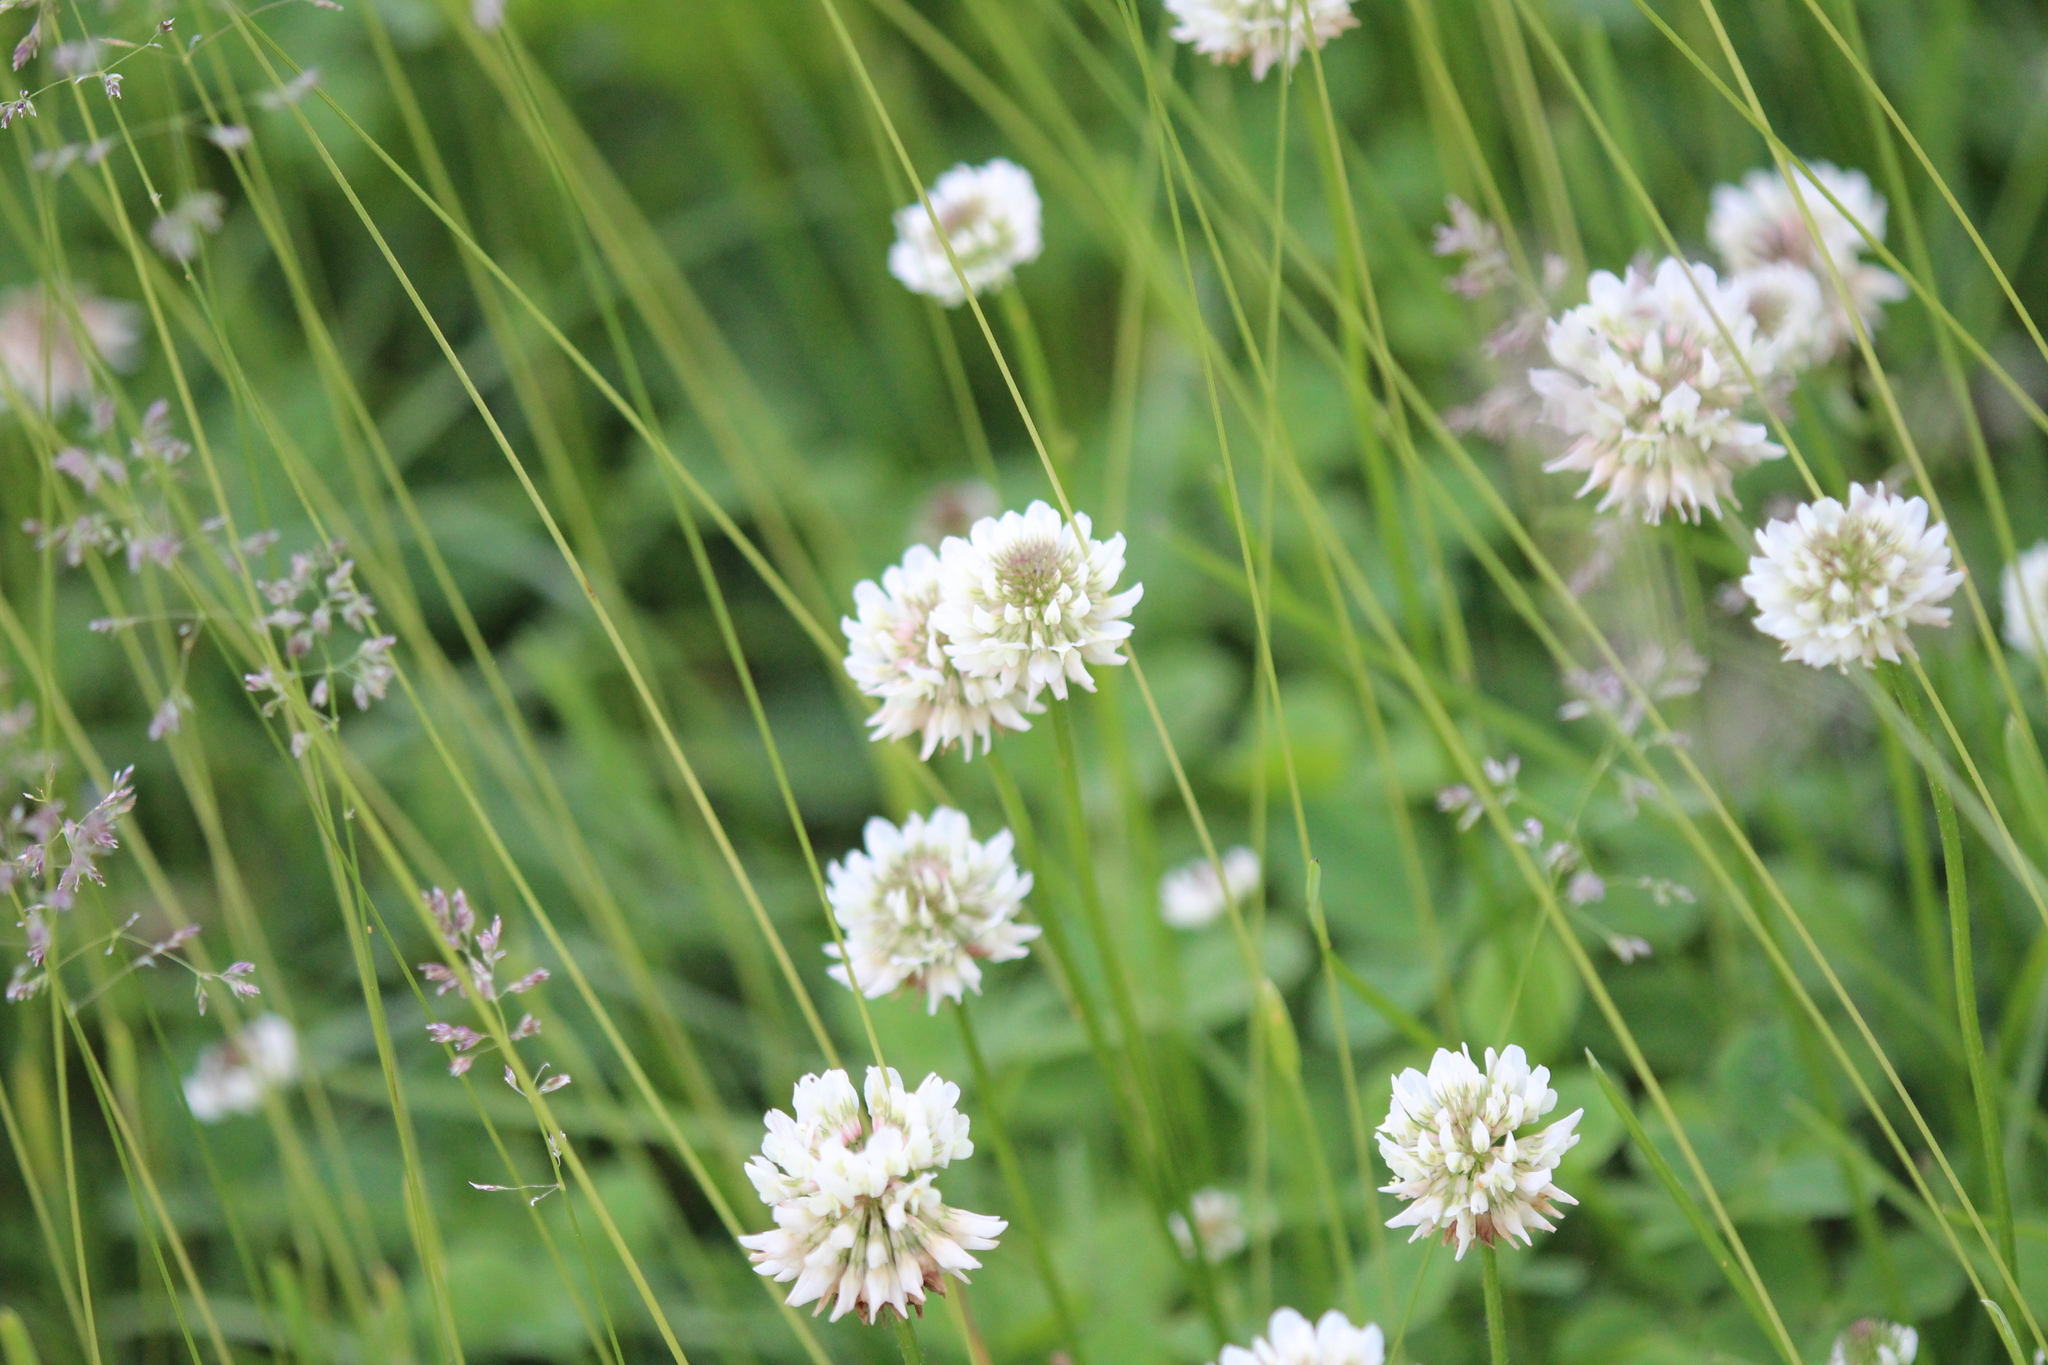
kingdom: Plantae
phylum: Tracheophyta
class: Magnoliopsida
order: Fabales
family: Fabaceae
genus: Trifolium
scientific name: Trifolium repens
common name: White clover
